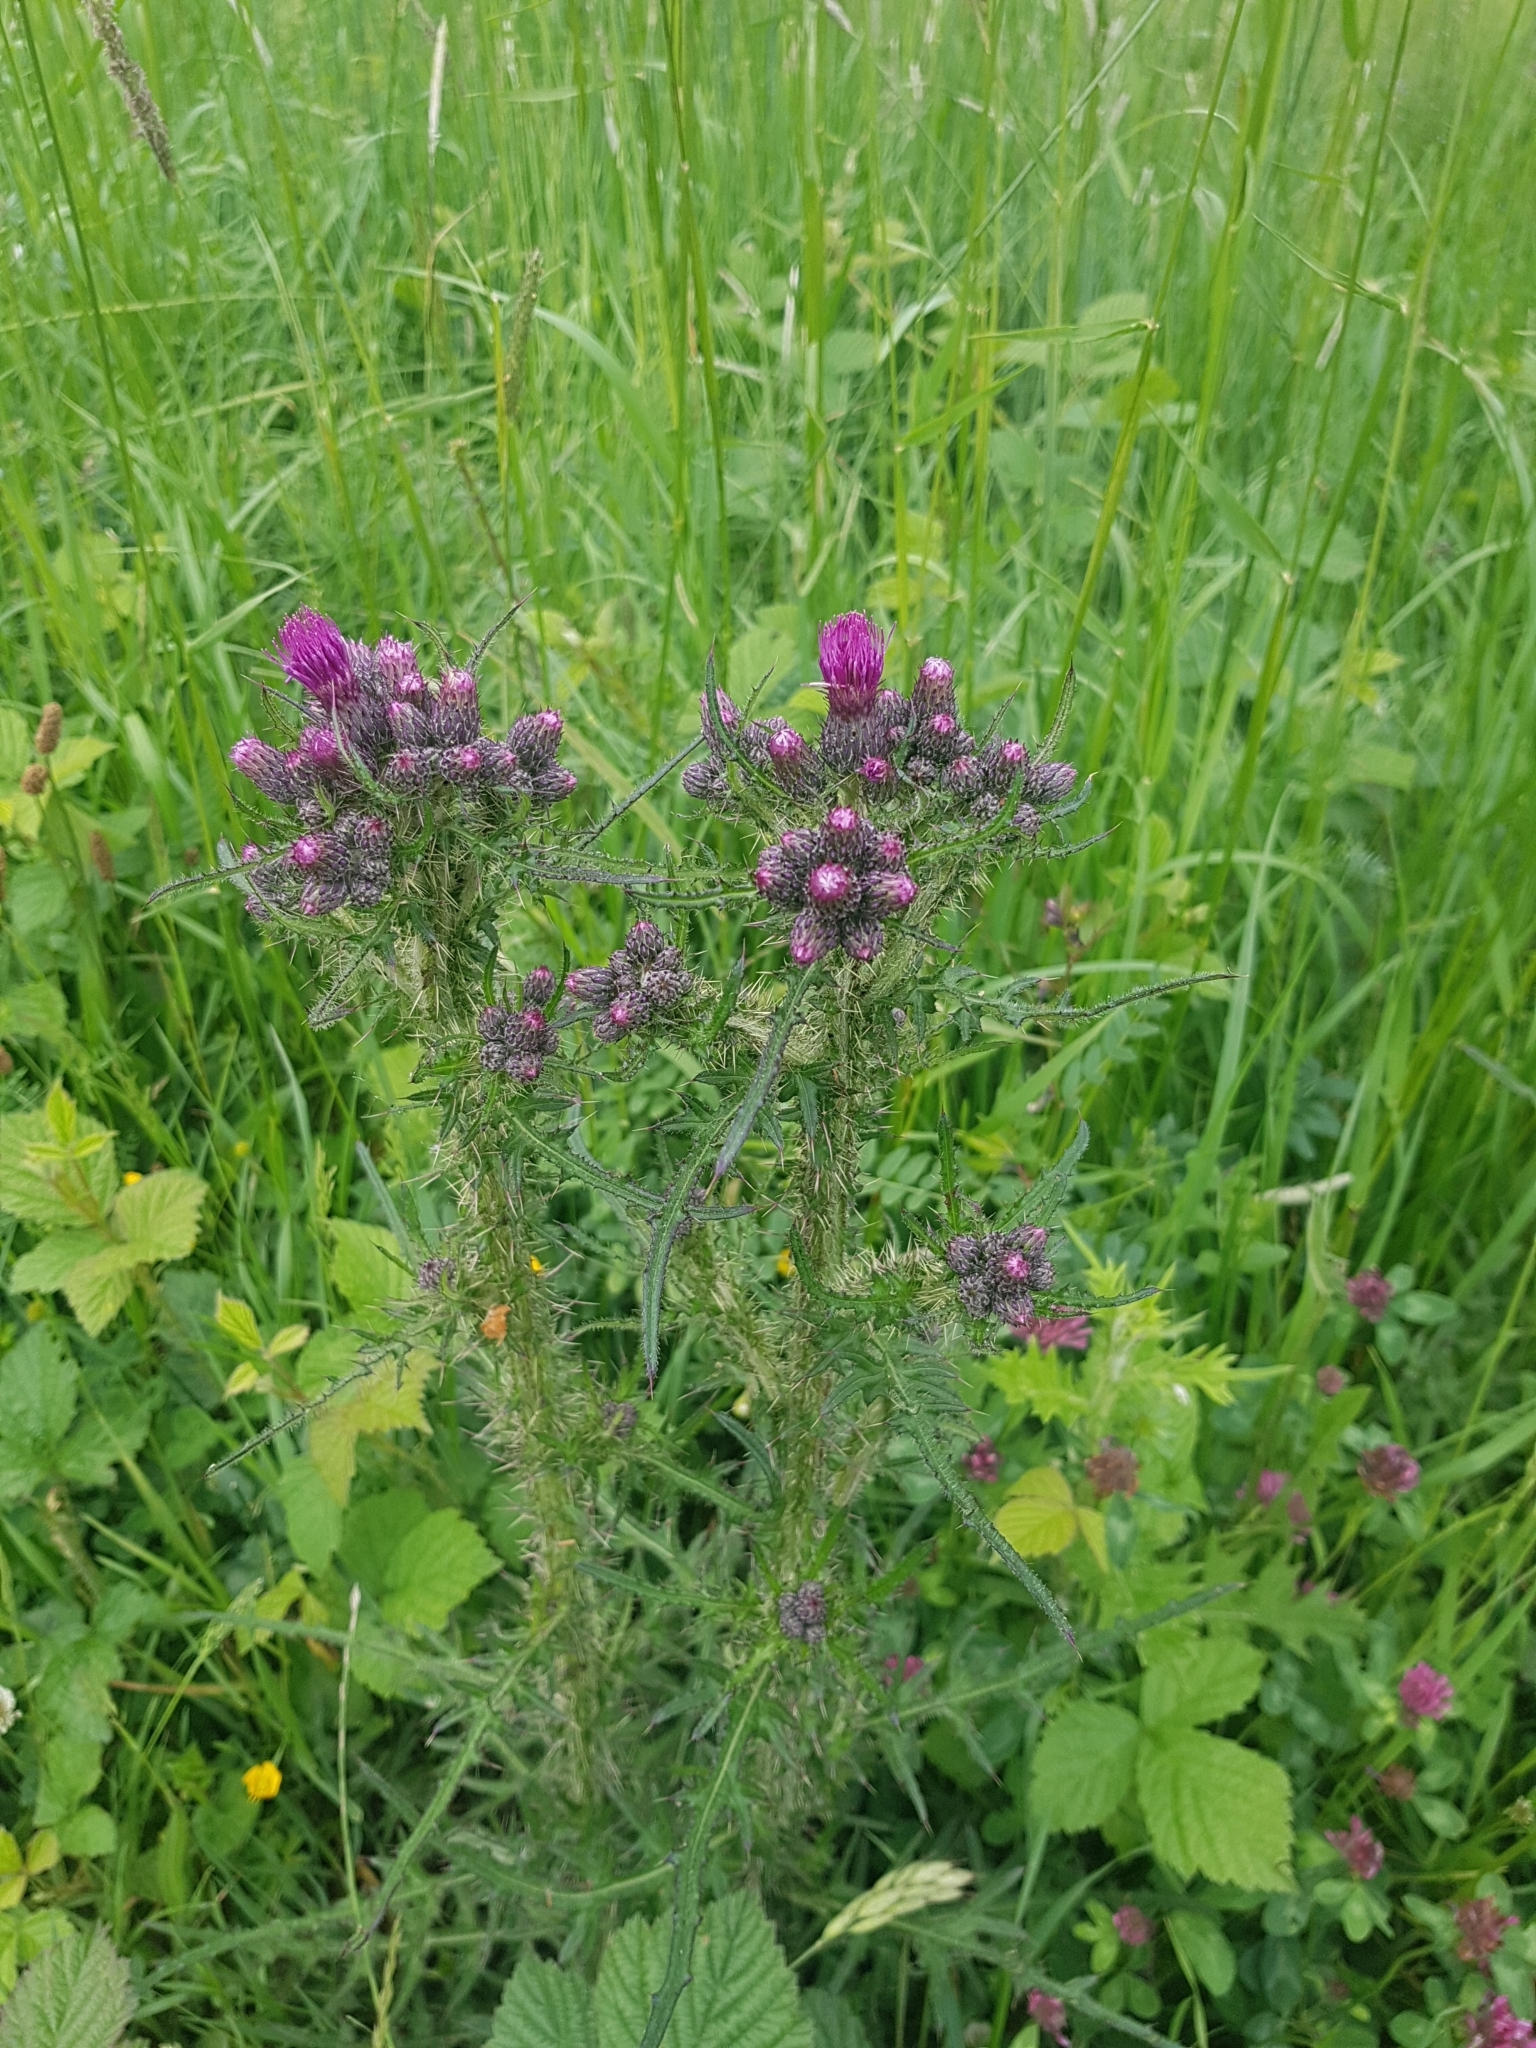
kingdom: Plantae
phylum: Tracheophyta
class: Magnoliopsida
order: Asterales
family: Asteraceae
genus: Cirsium
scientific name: Cirsium palustre
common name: Marsh thistle
